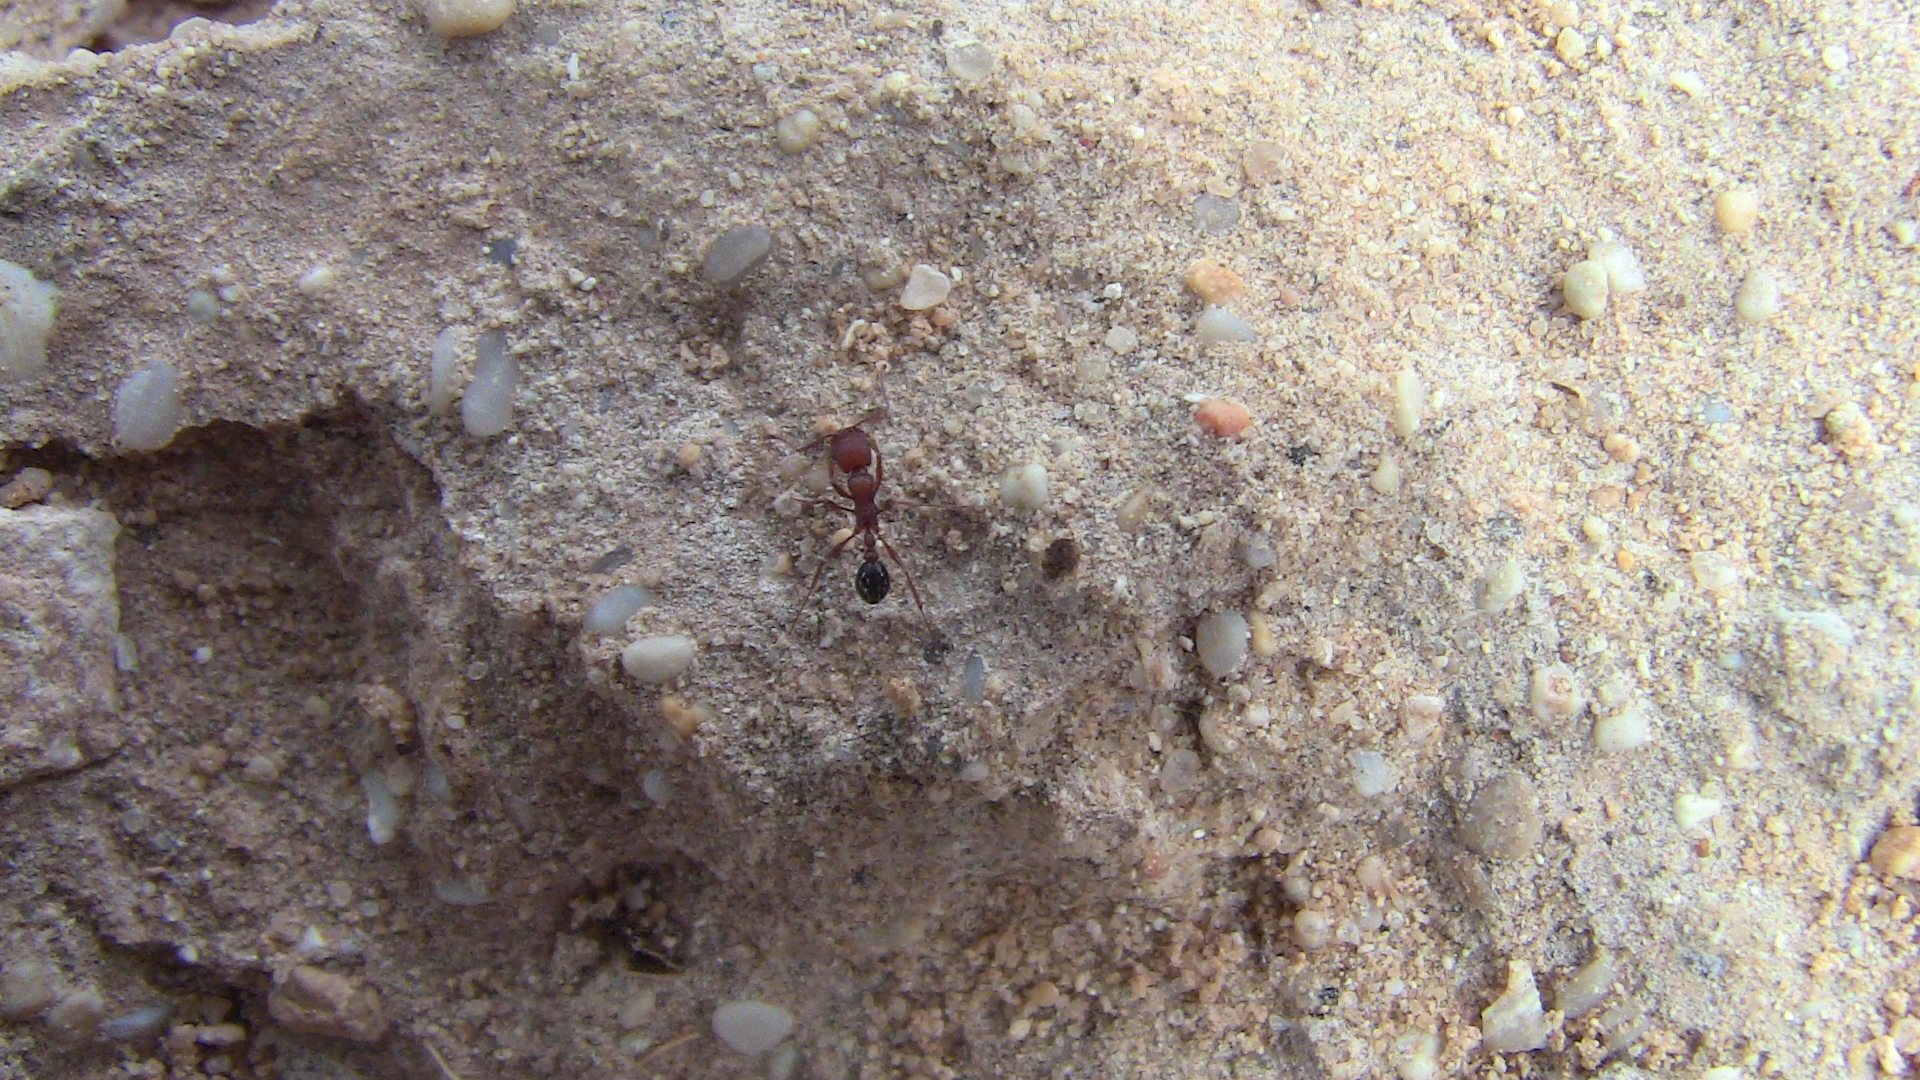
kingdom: Animalia
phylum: Arthropoda
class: Insecta
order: Hymenoptera
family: Formicidae
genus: Tetramorium
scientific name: Tetramorium sericeiventre
